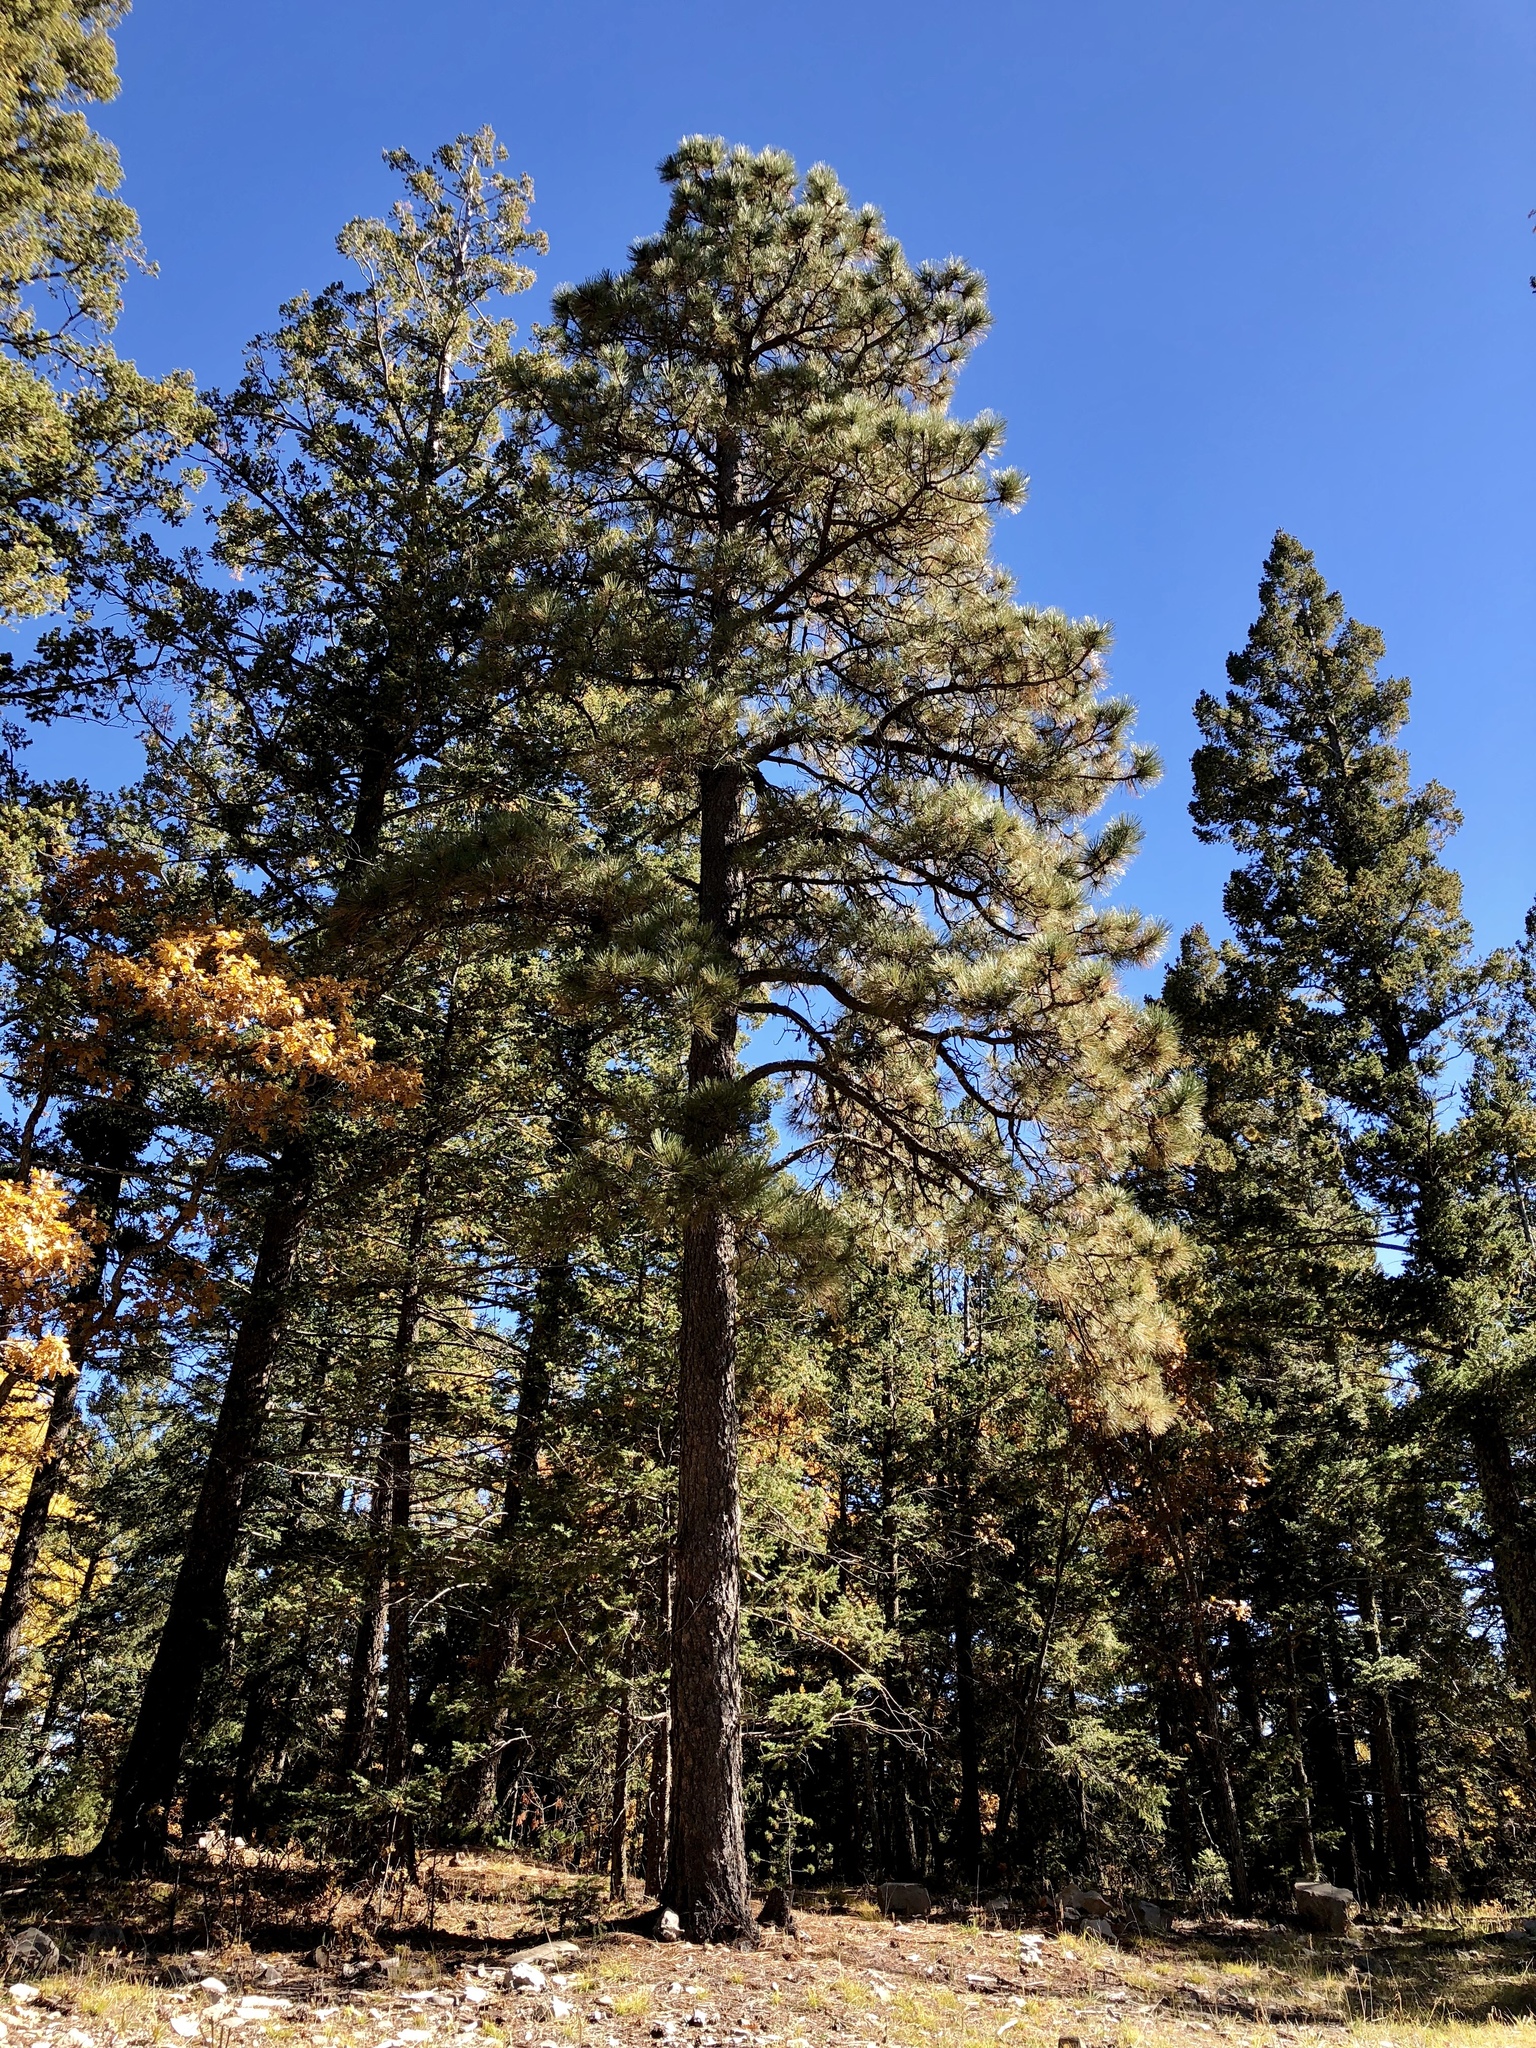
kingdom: Plantae
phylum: Tracheophyta
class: Pinopsida
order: Pinales
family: Pinaceae
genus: Pinus
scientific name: Pinus ponderosa
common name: Western yellow-pine
